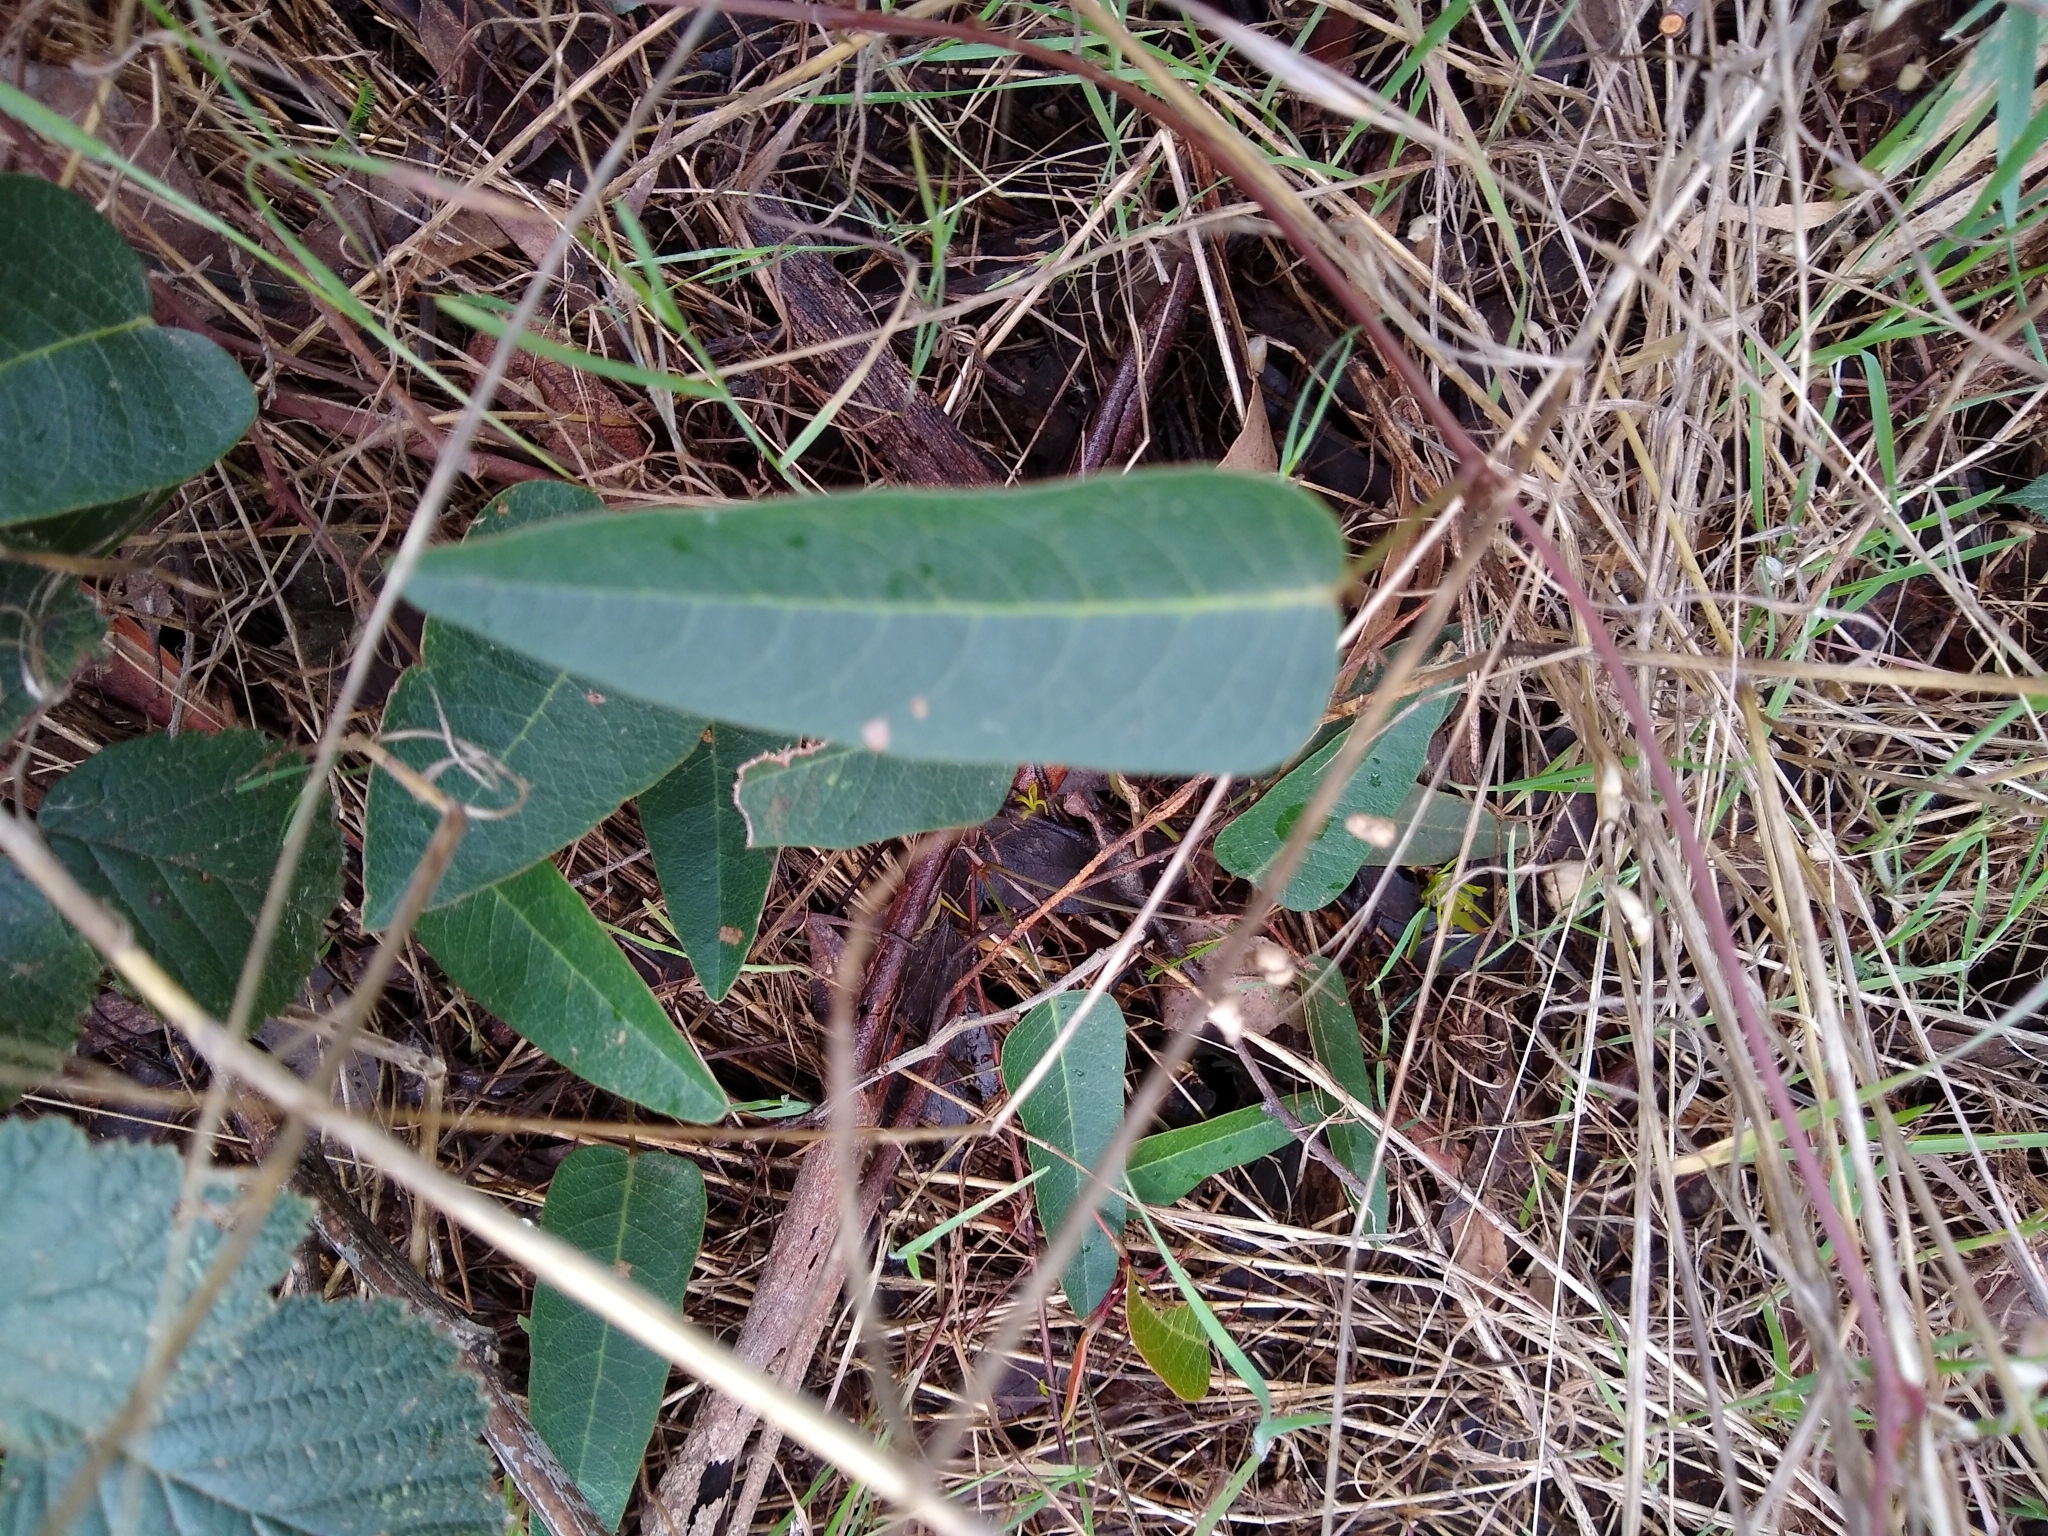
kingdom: Plantae
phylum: Tracheophyta
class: Magnoliopsida
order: Fabales
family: Fabaceae
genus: Hardenbergia
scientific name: Hardenbergia violacea
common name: Coral-pea
